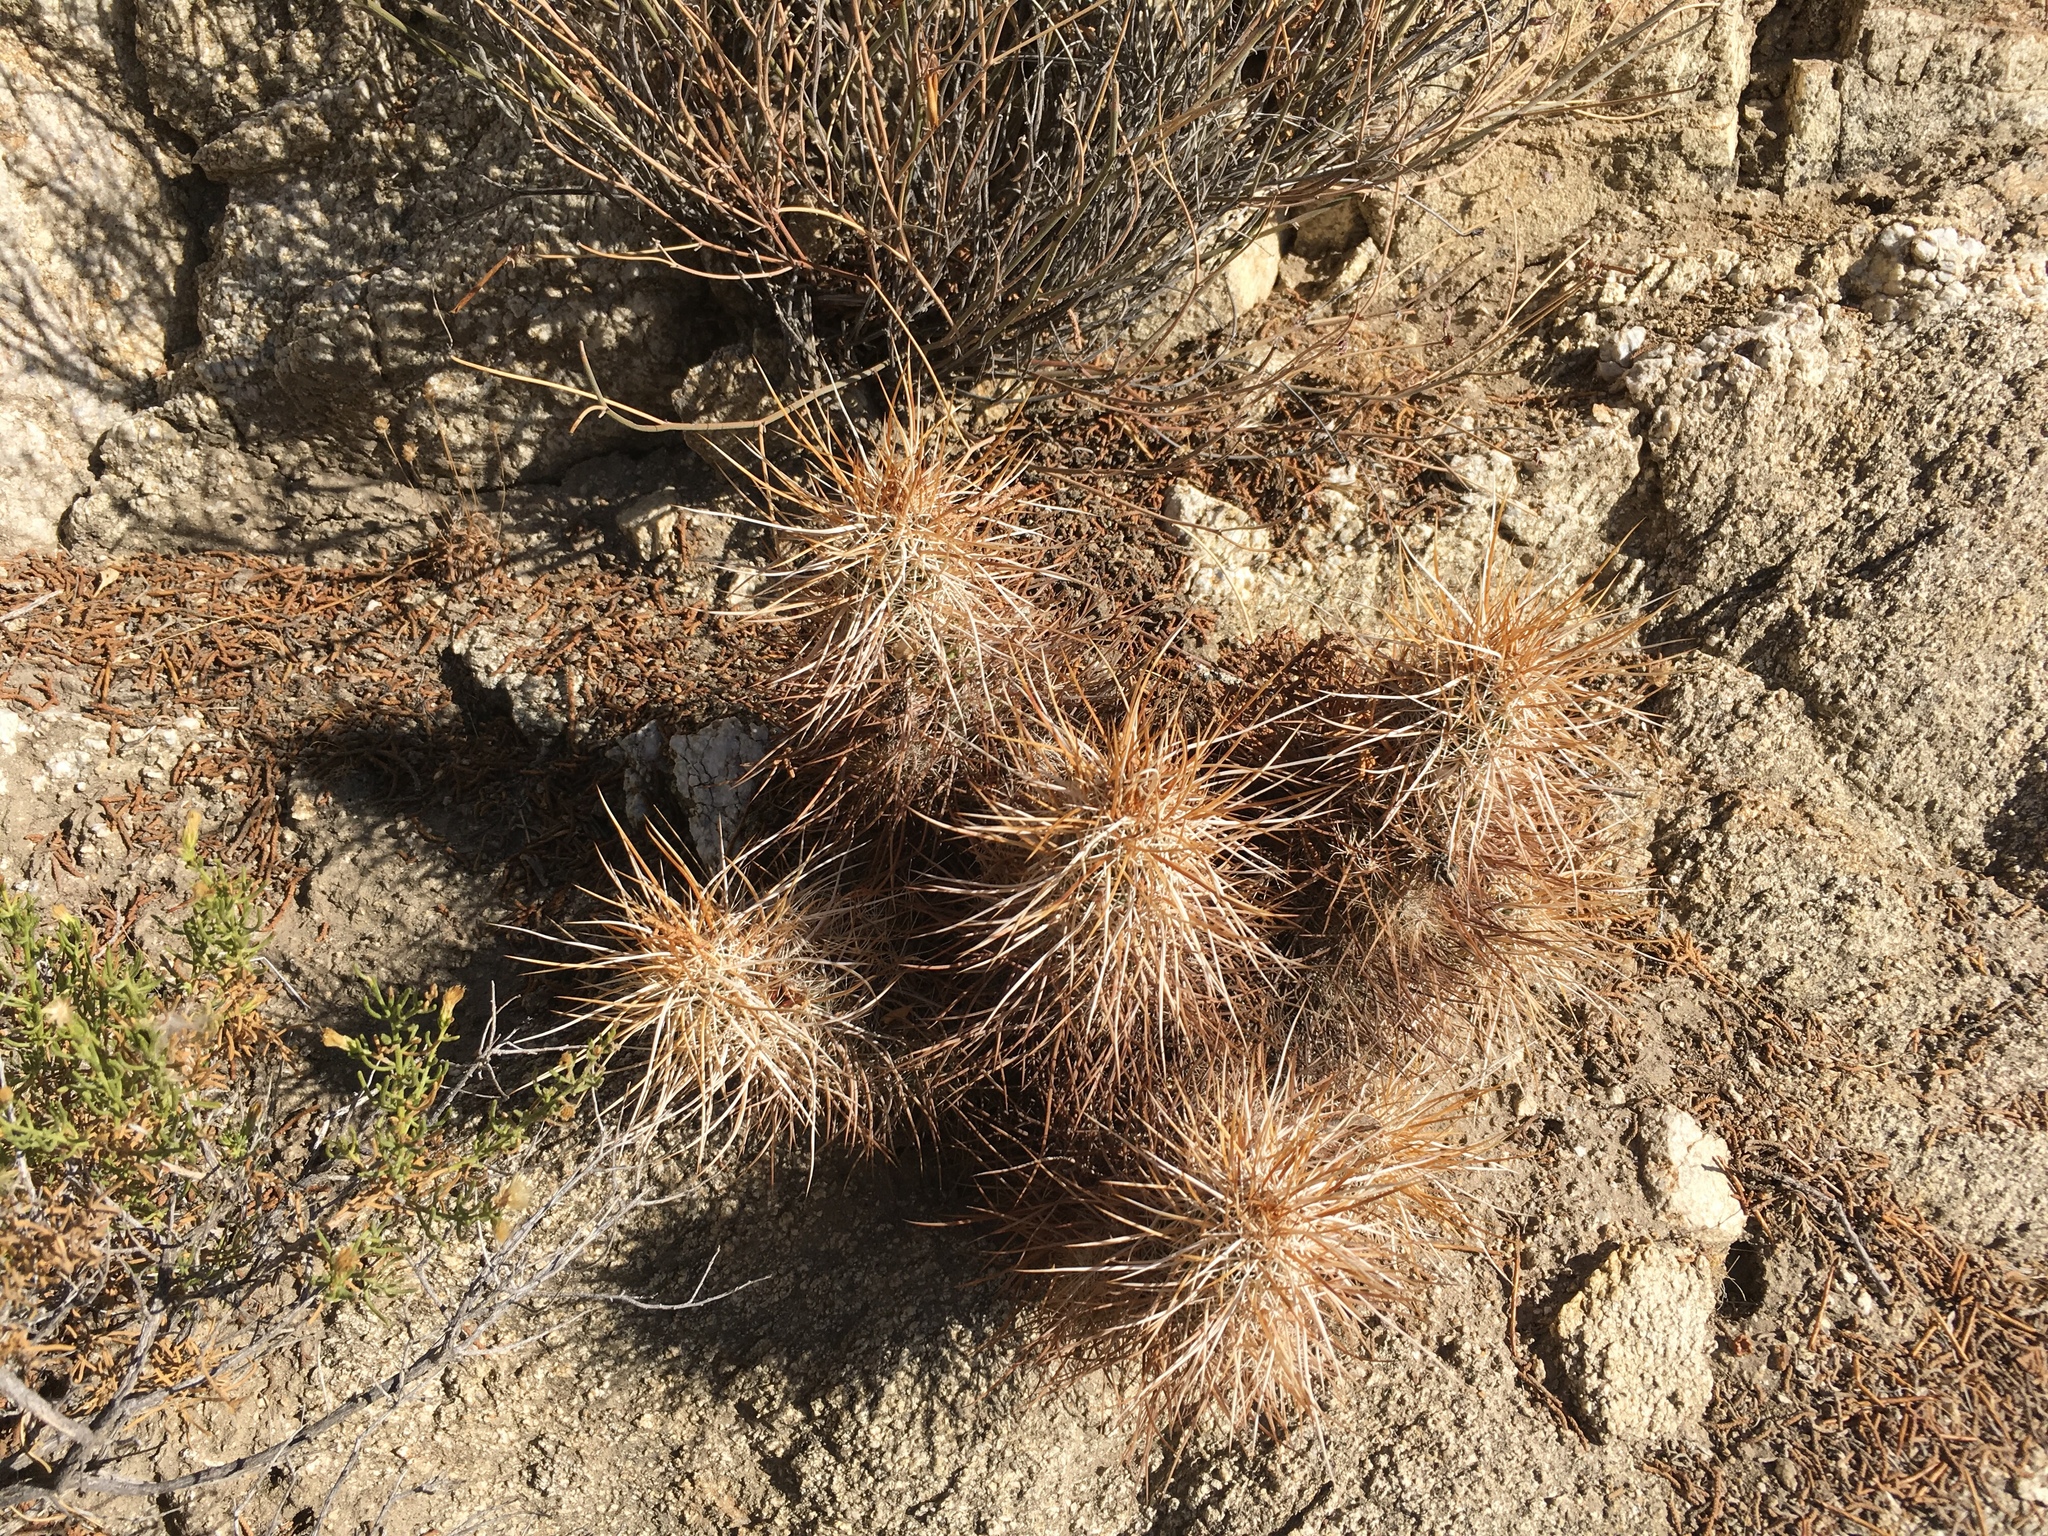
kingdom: Plantae
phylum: Tracheophyta
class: Magnoliopsida
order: Caryophyllales
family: Cactaceae
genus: Echinocereus
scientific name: Echinocereus engelmannii
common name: Engelmann's hedgehog cactus
